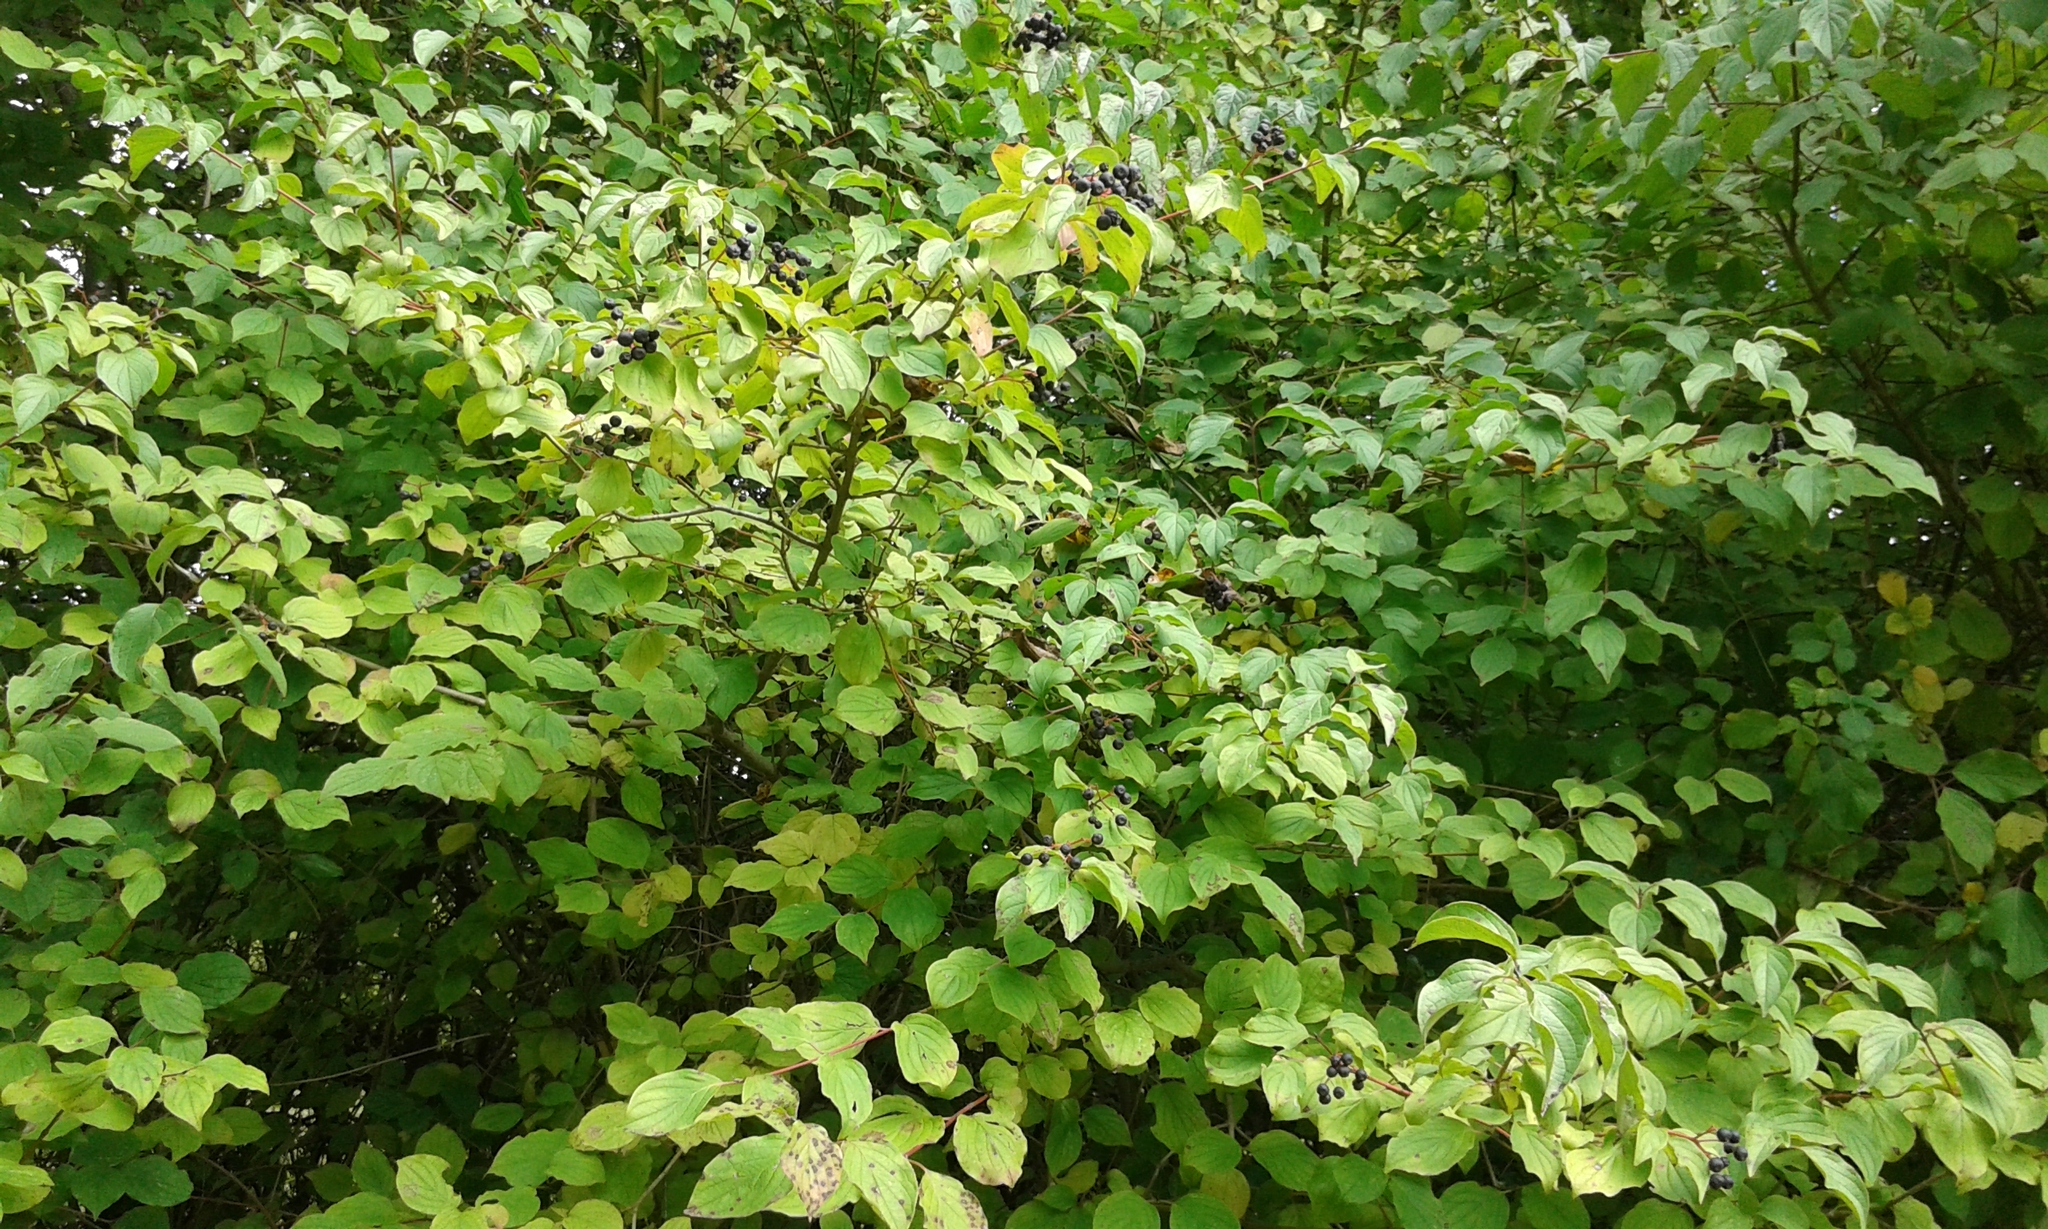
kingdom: Plantae
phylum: Tracheophyta
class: Magnoliopsida
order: Cornales
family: Cornaceae
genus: Cornus
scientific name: Cornus sanguinea
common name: Dogwood
